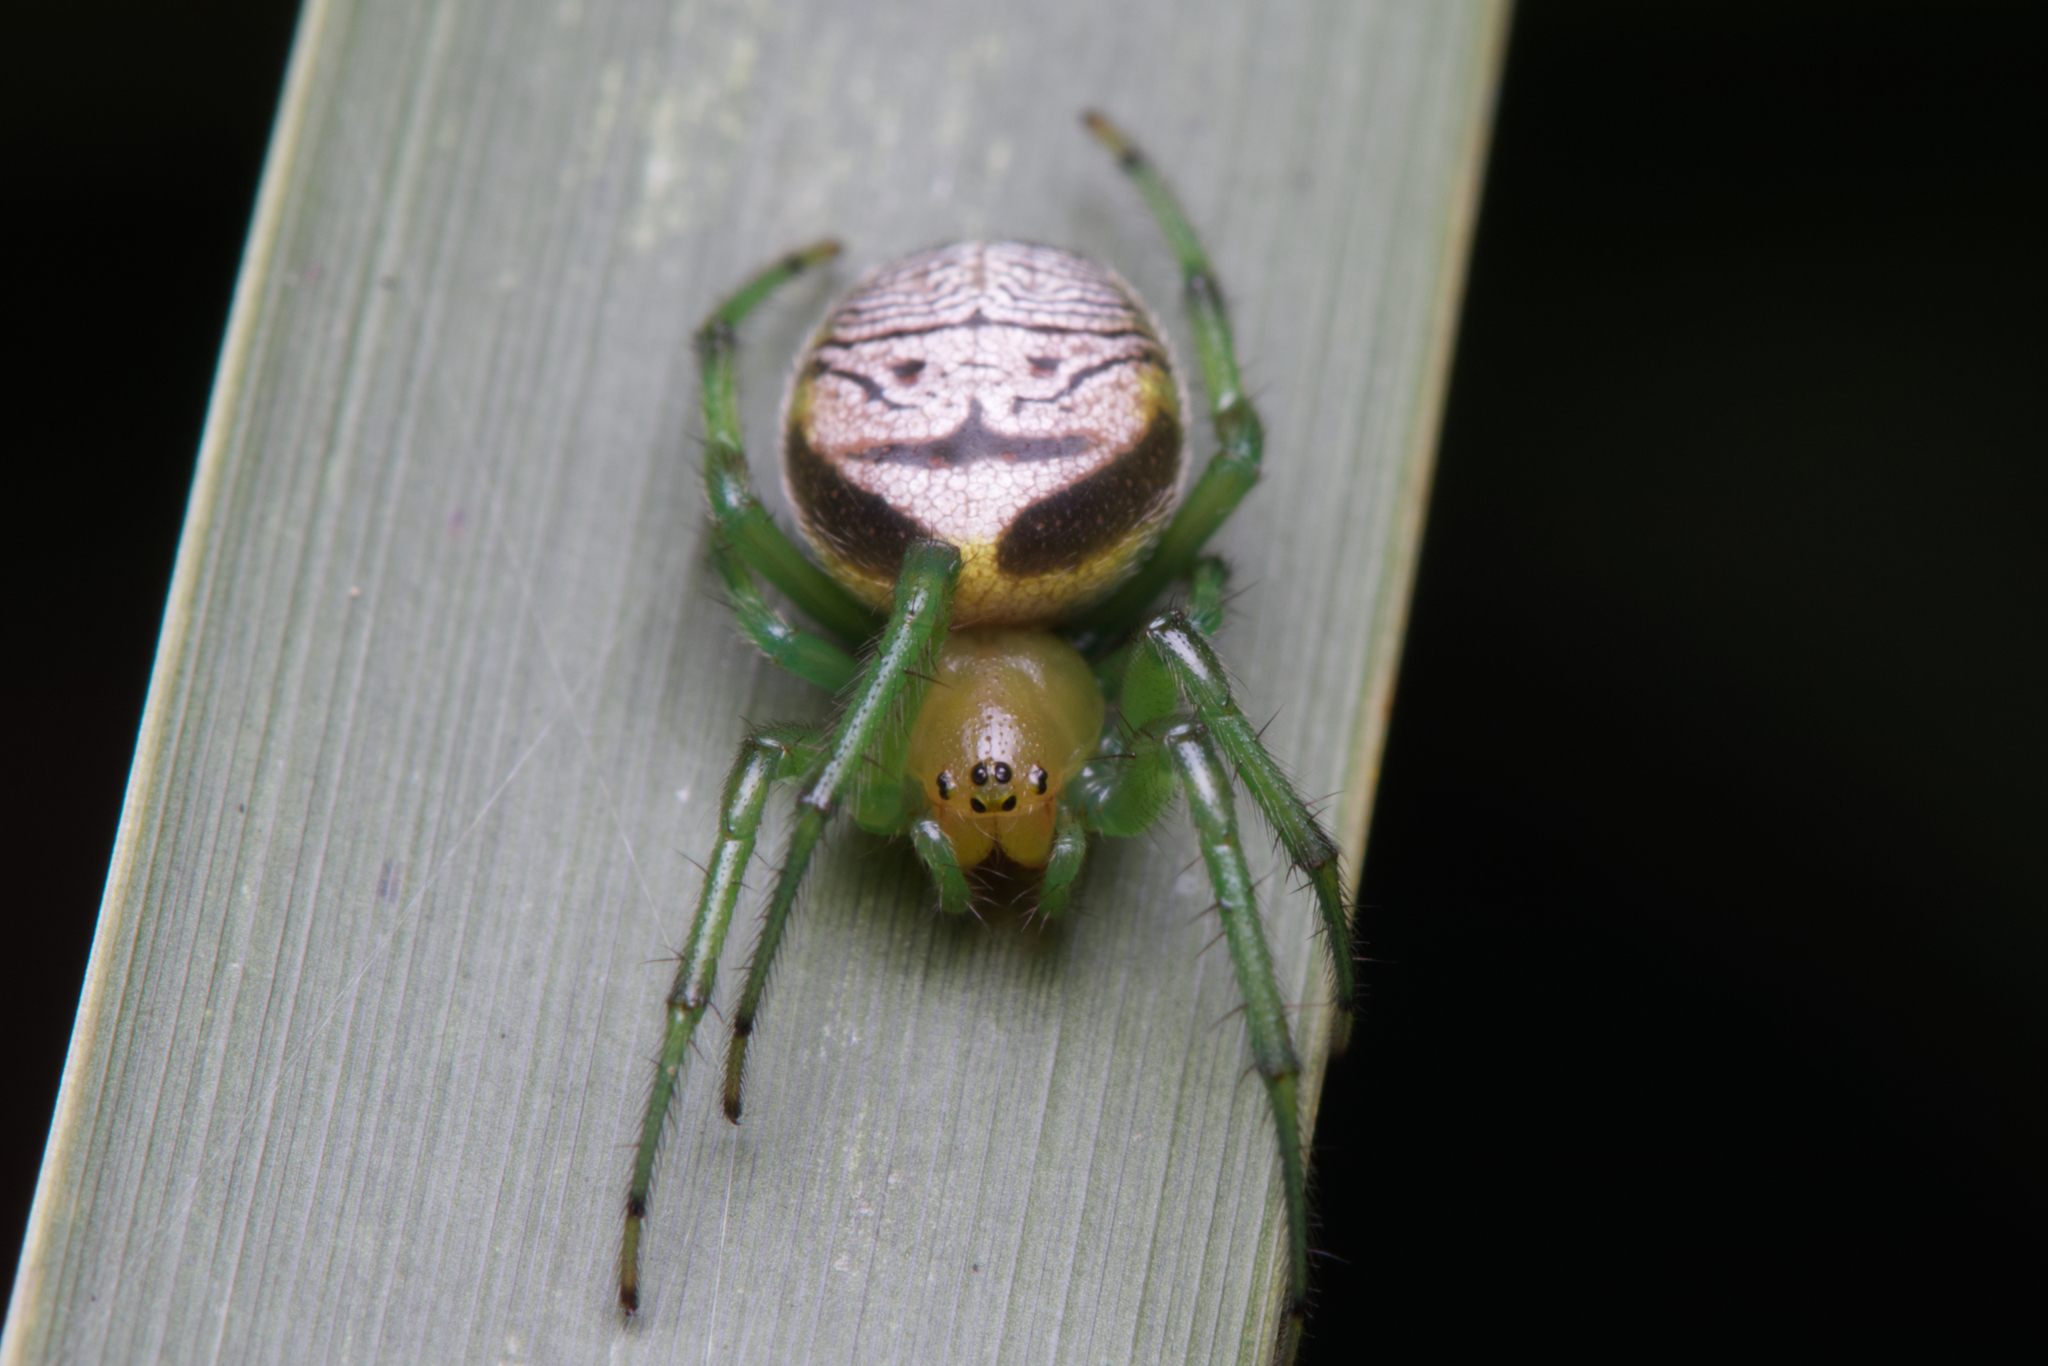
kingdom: Animalia
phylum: Arthropoda
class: Arachnida
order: Araneae
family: Araneidae
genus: Bijoaraneus
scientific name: Bijoaraneus praesignis
